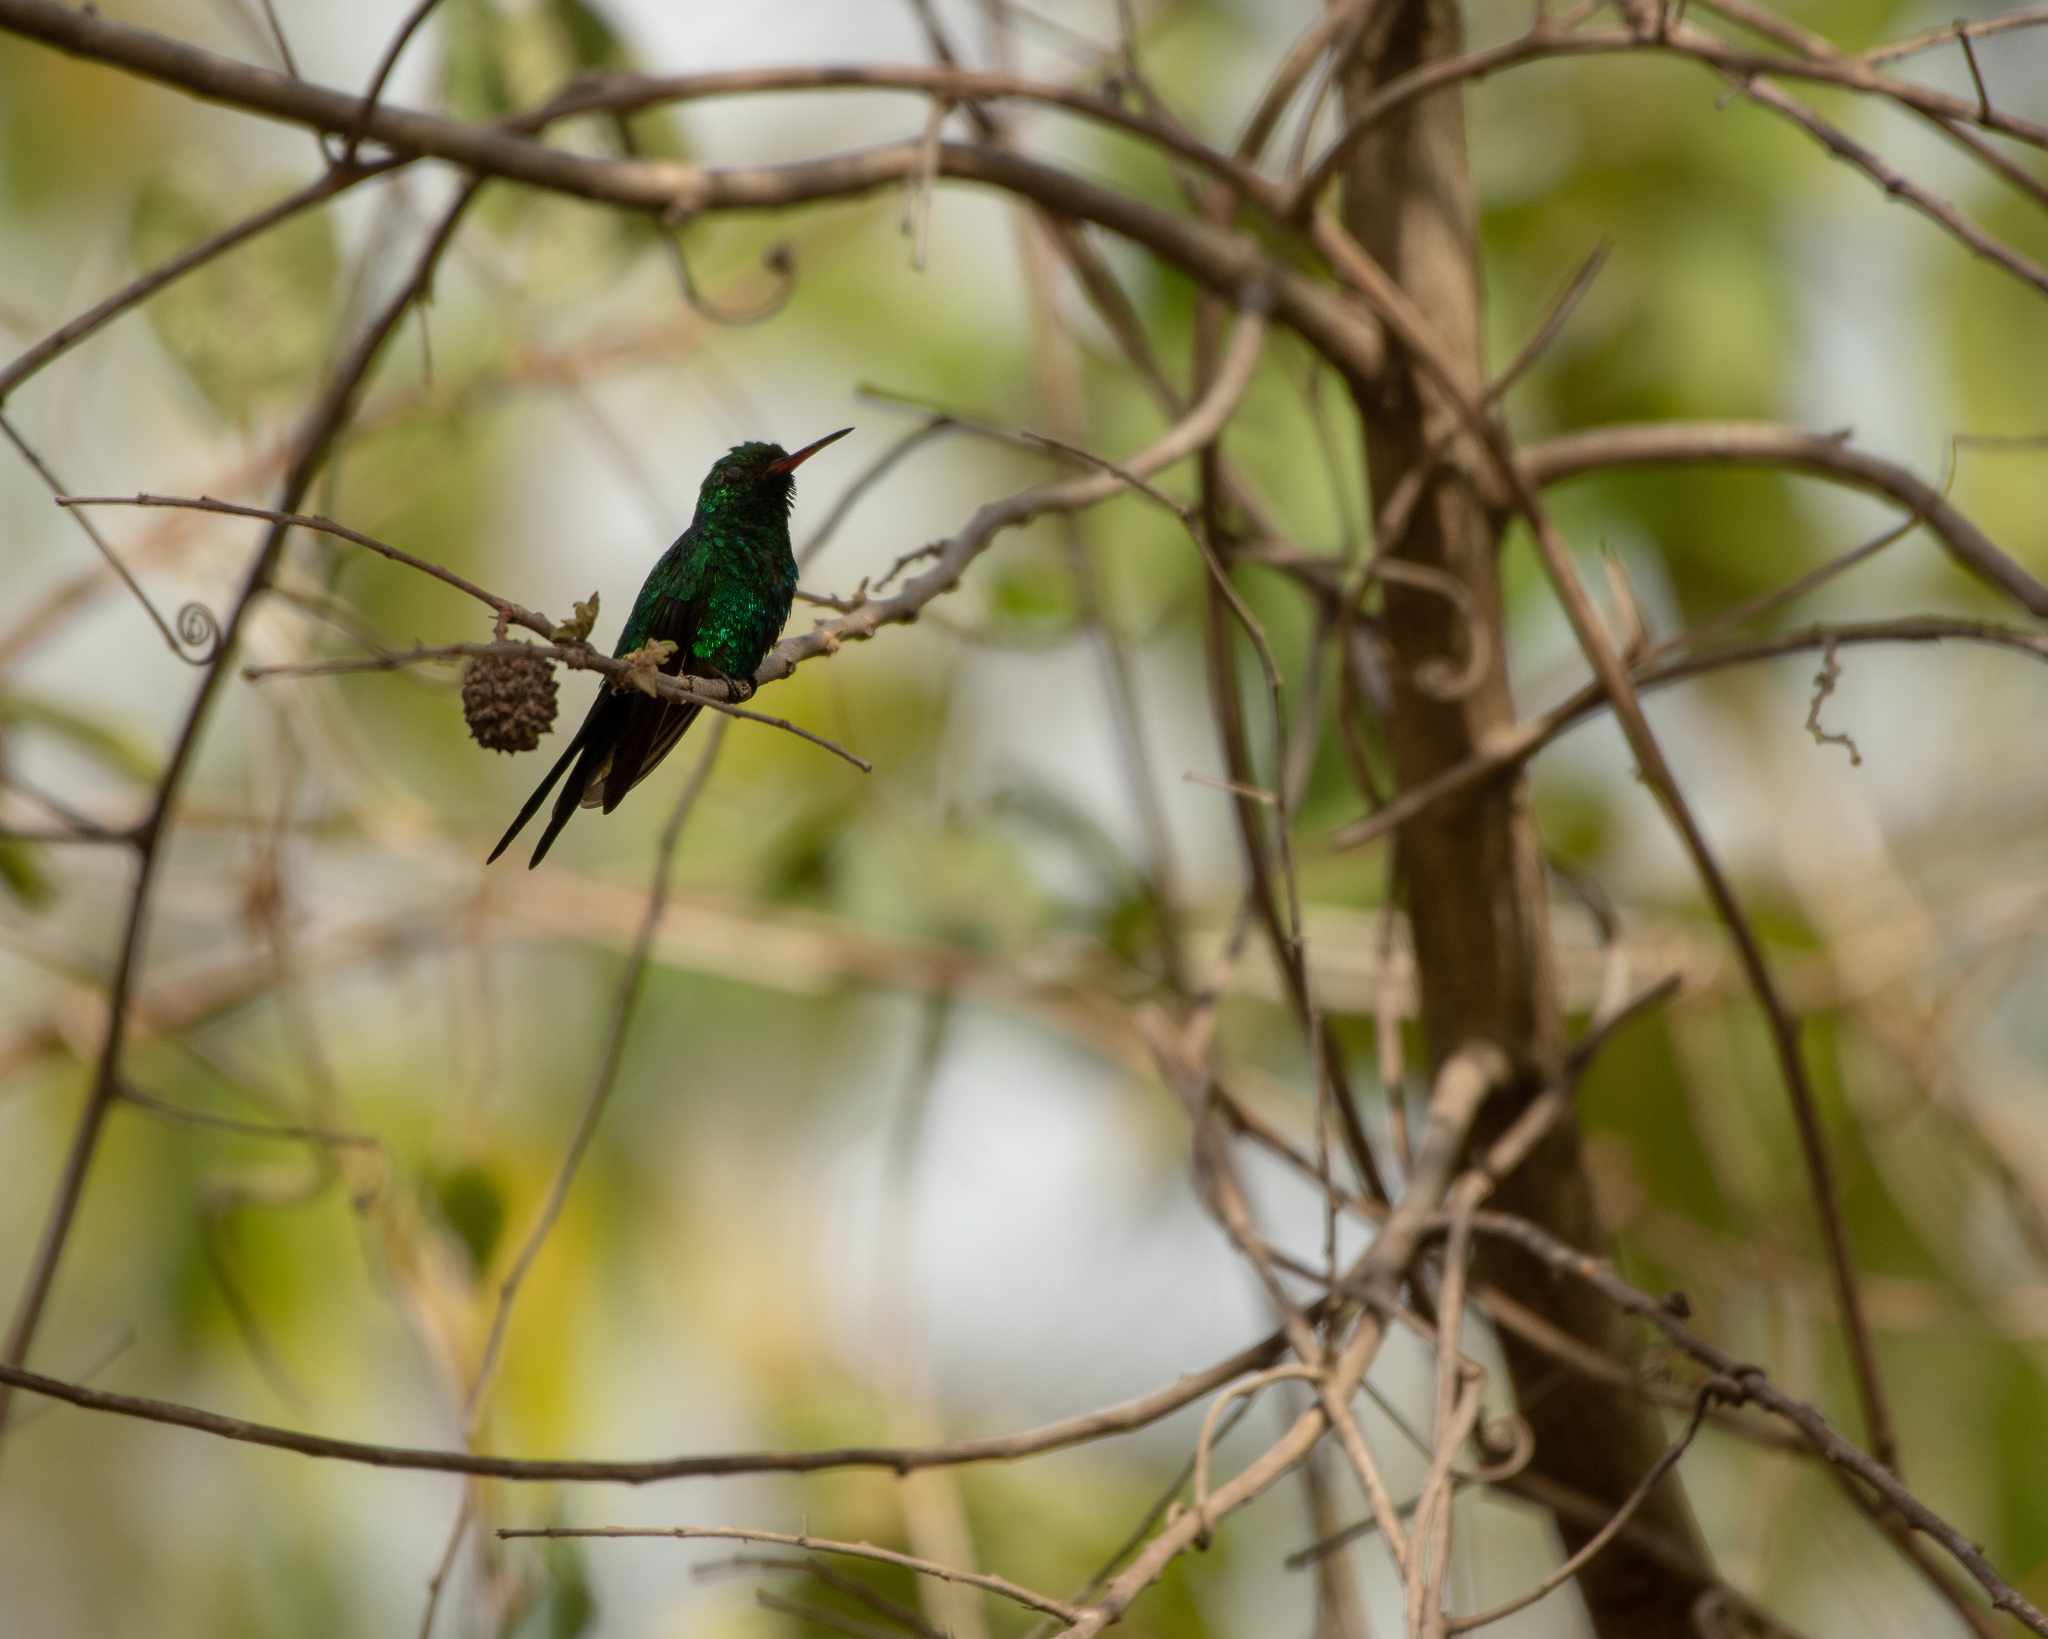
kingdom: Animalia
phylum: Chordata
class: Aves
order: Apodiformes
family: Trochilidae
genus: Cynanthus
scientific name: Cynanthus forficatus
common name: Cozumel emerald
